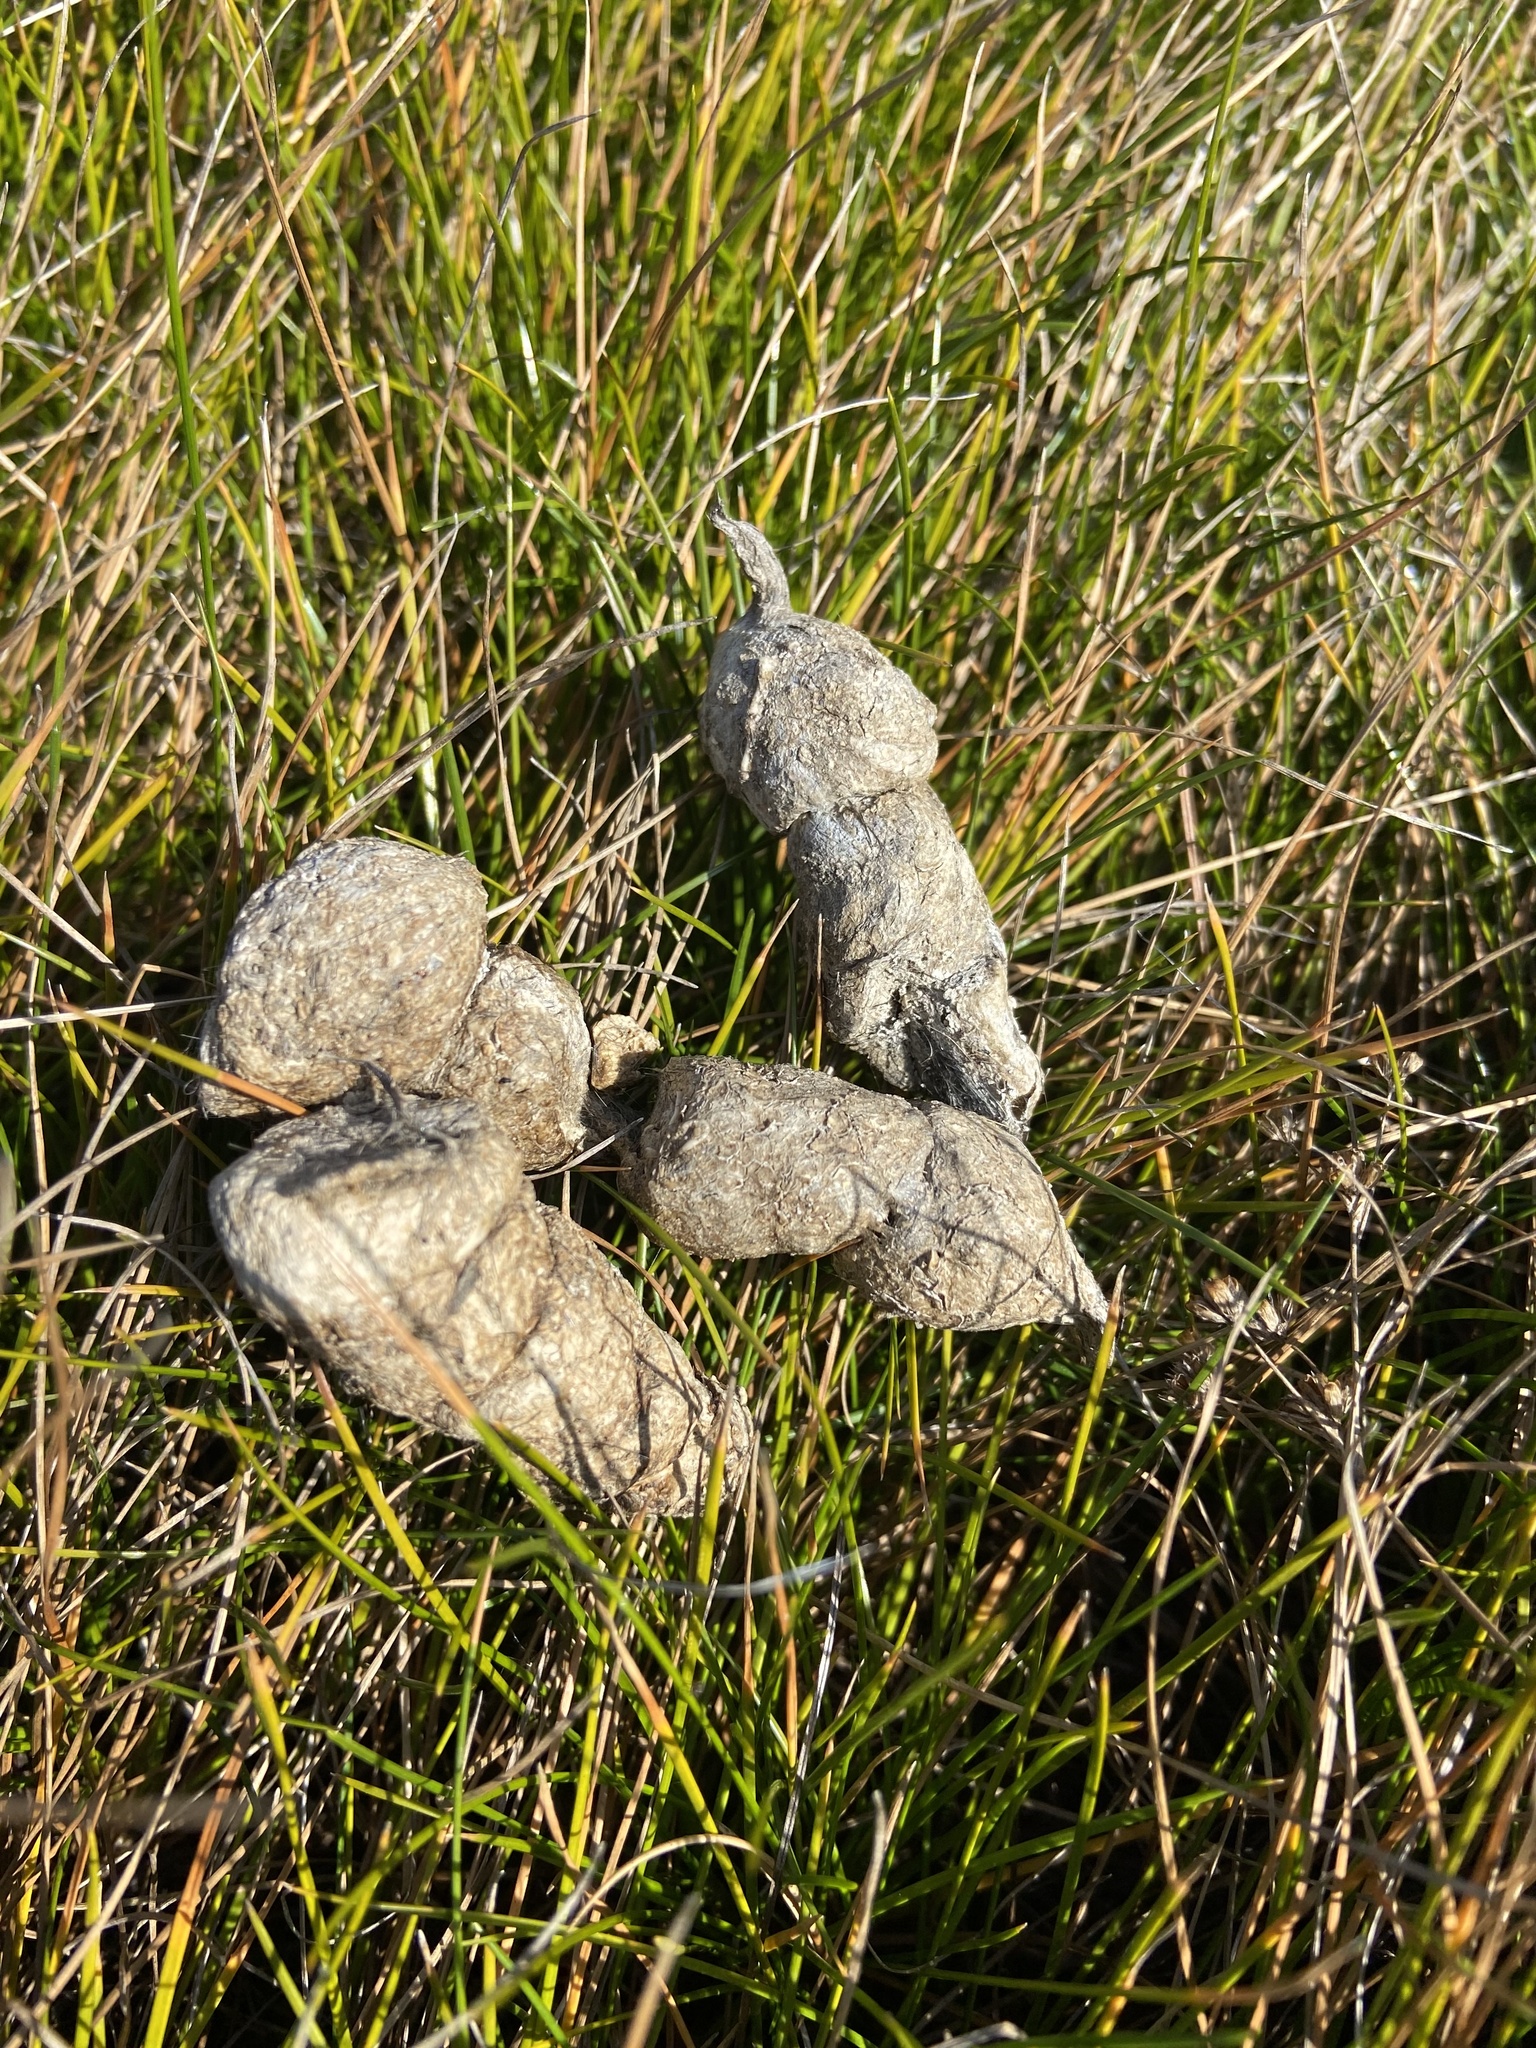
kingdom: Animalia
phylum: Chordata
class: Mammalia
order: Carnivora
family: Felidae
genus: Caracal
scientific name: Caracal caracal
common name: Caracal
